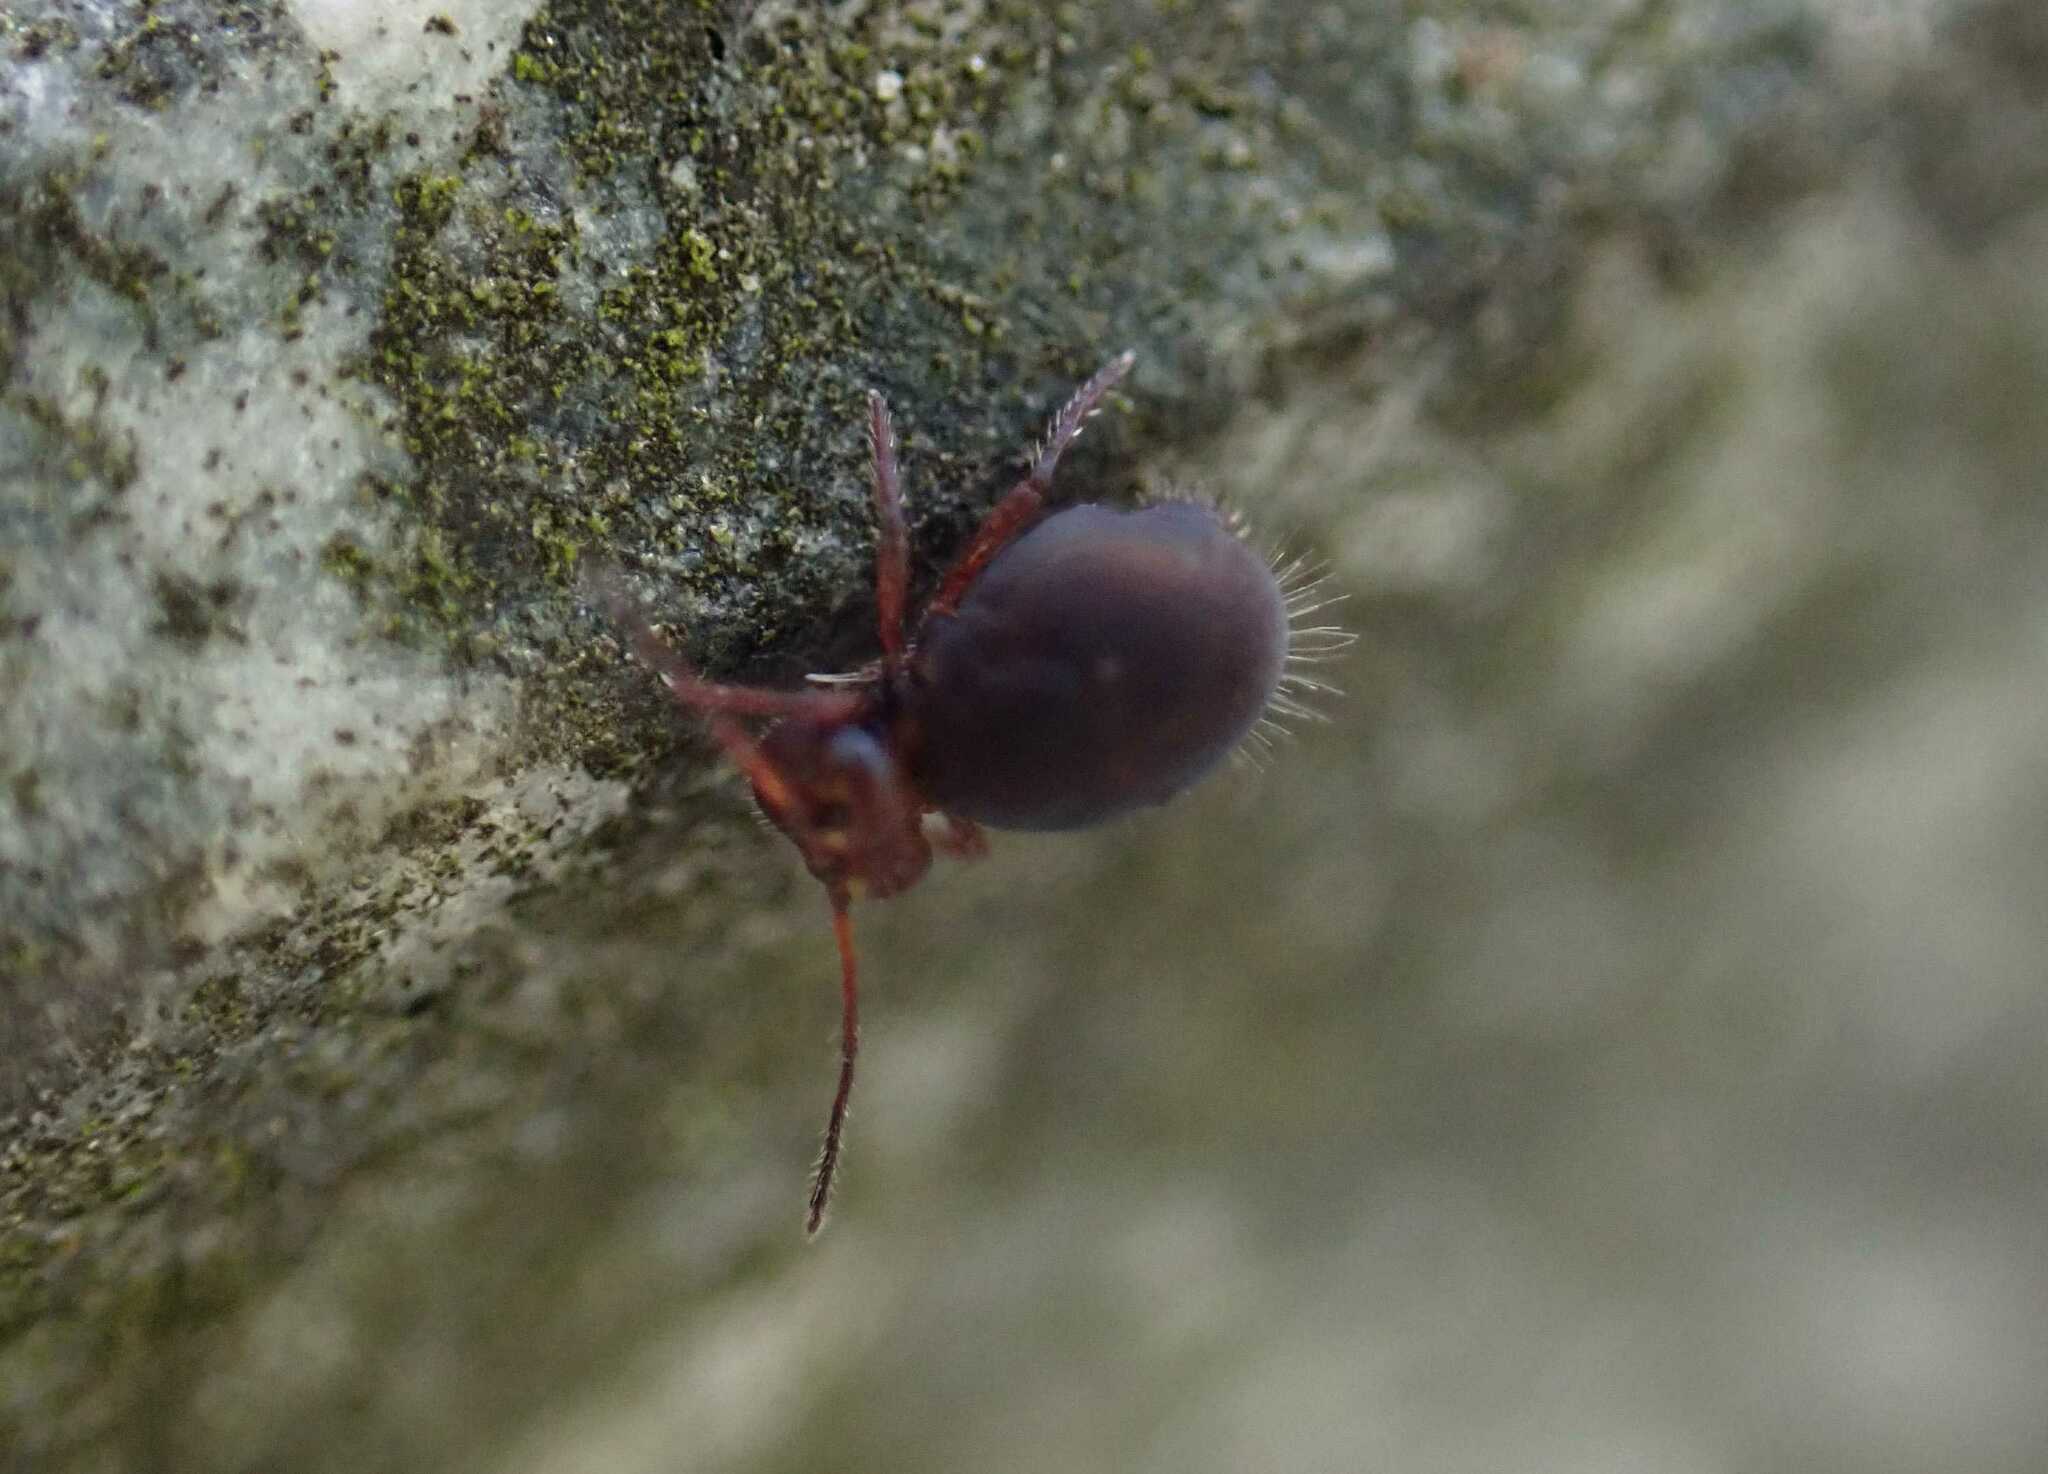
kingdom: Animalia
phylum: Arthropoda
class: Collembola
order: Symphypleona
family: Dicyrtomidae
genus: Dicyrtoma
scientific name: Dicyrtoma fusca
